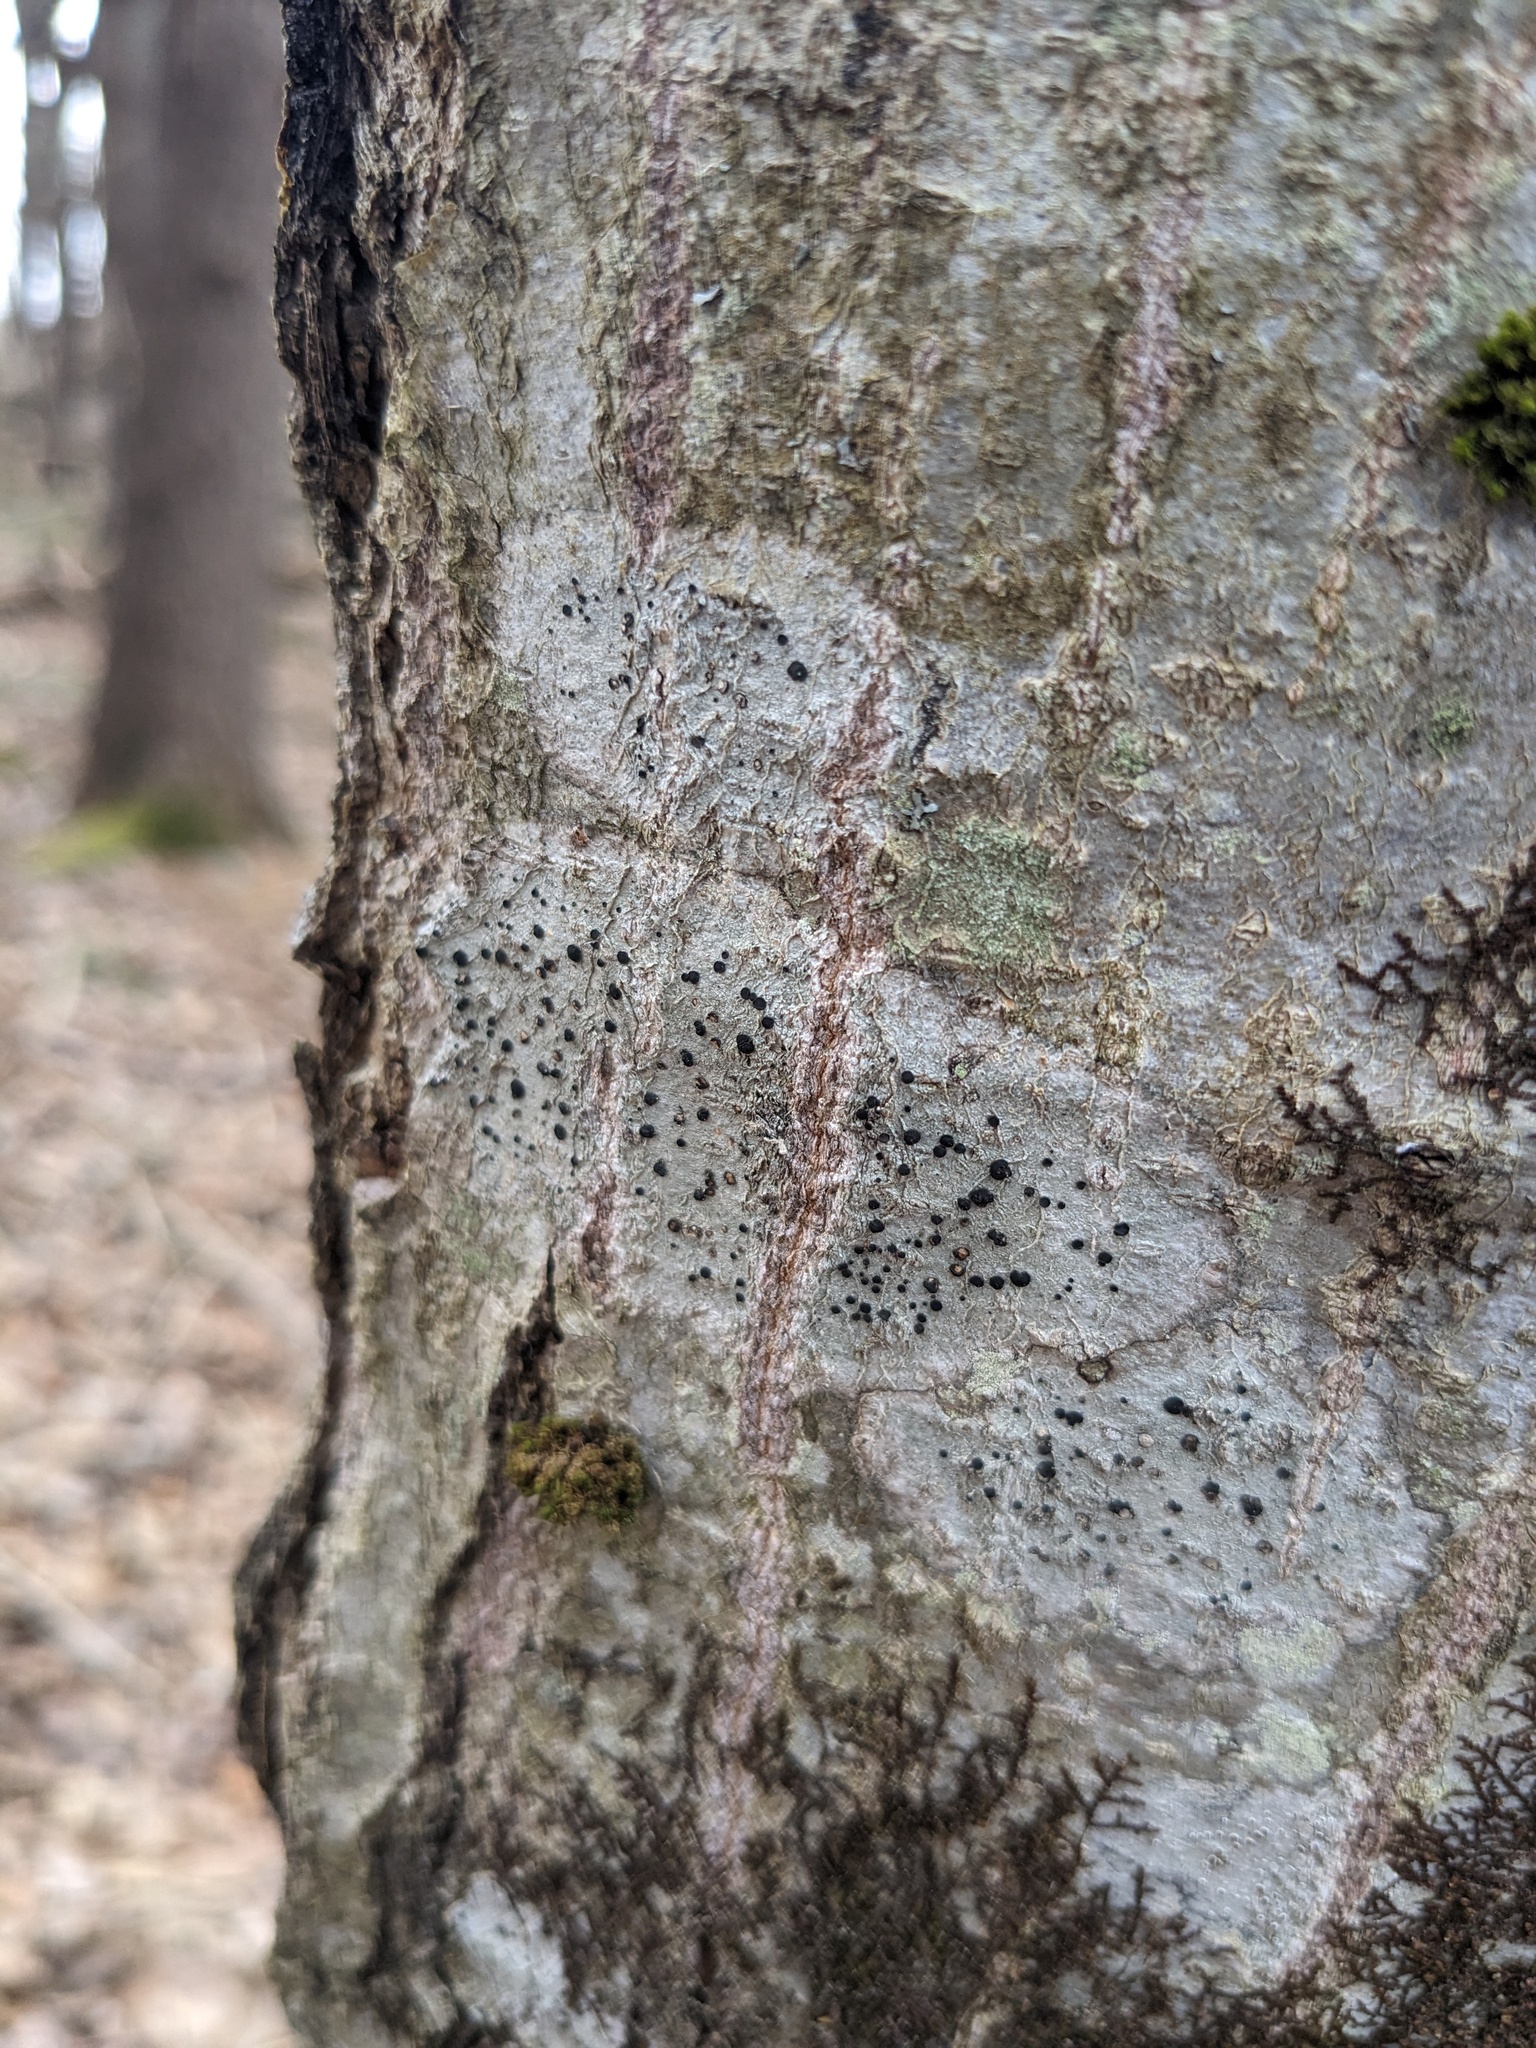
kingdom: Fungi
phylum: Ascomycota
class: Lecanoromycetes
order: Caliciales
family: Caliciaceae
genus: Buellia
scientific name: Buellia erubescens
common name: Common button lichen
